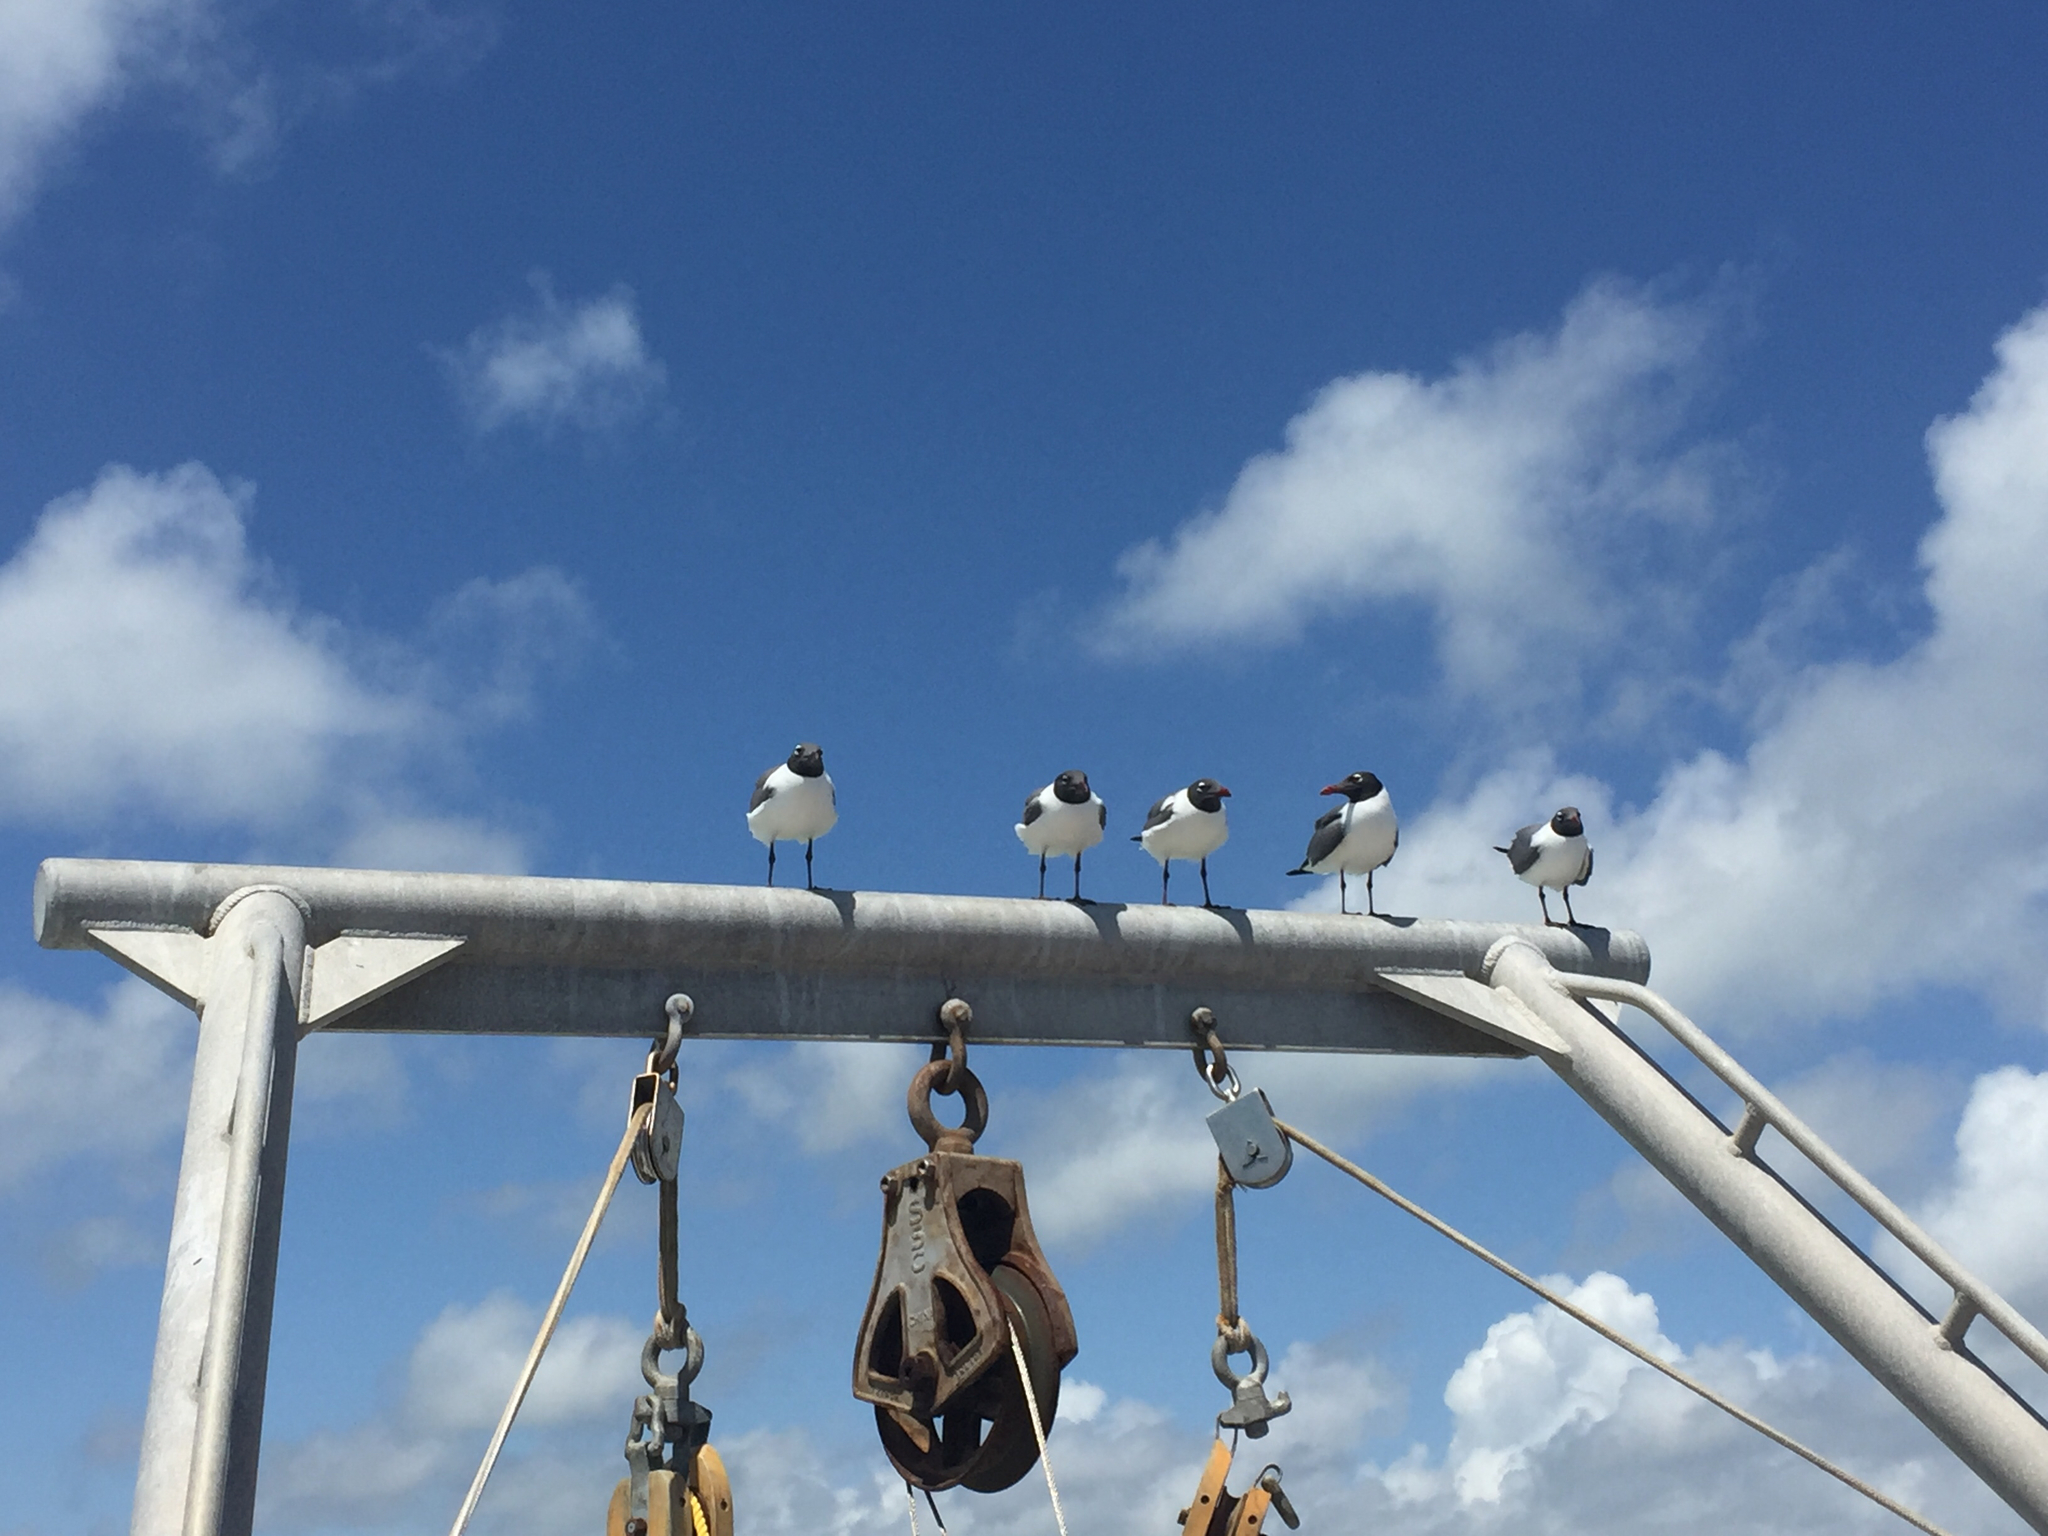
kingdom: Animalia
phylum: Chordata
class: Aves
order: Charadriiformes
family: Laridae
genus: Leucophaeus
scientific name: Leucophaeus atricilla
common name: Laughing gull
